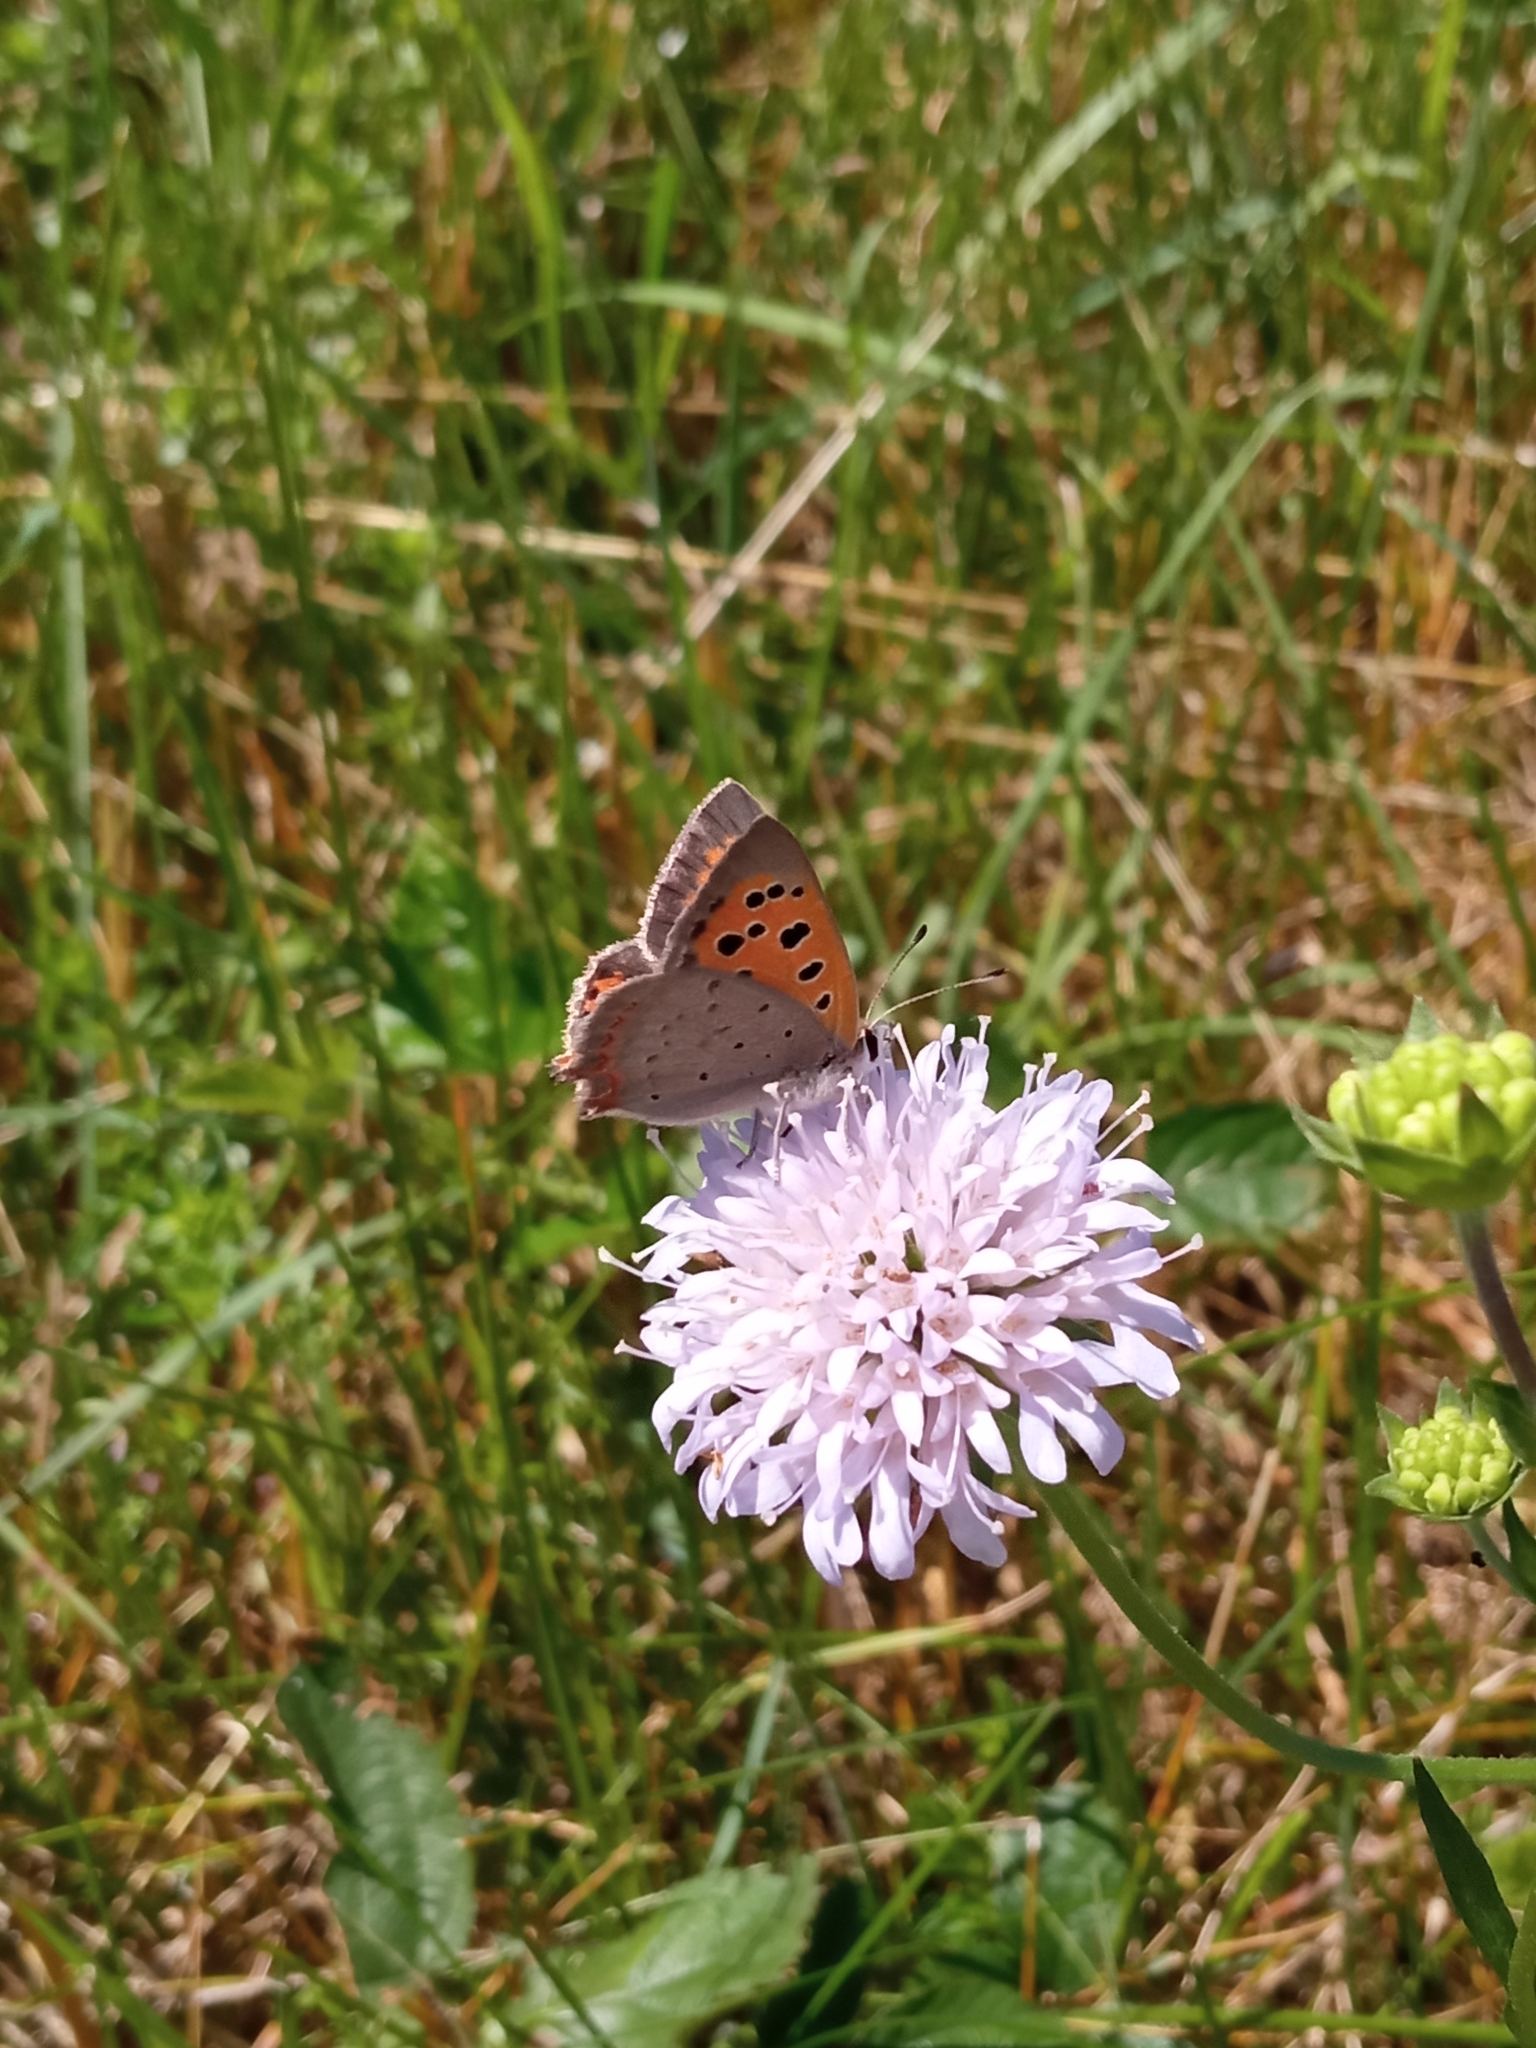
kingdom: Animalia
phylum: Arthropoda
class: Insecta
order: Lepidoptera
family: Lycaenidae
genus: Lycaena
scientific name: Lycaena phlaeas
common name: Small copper
